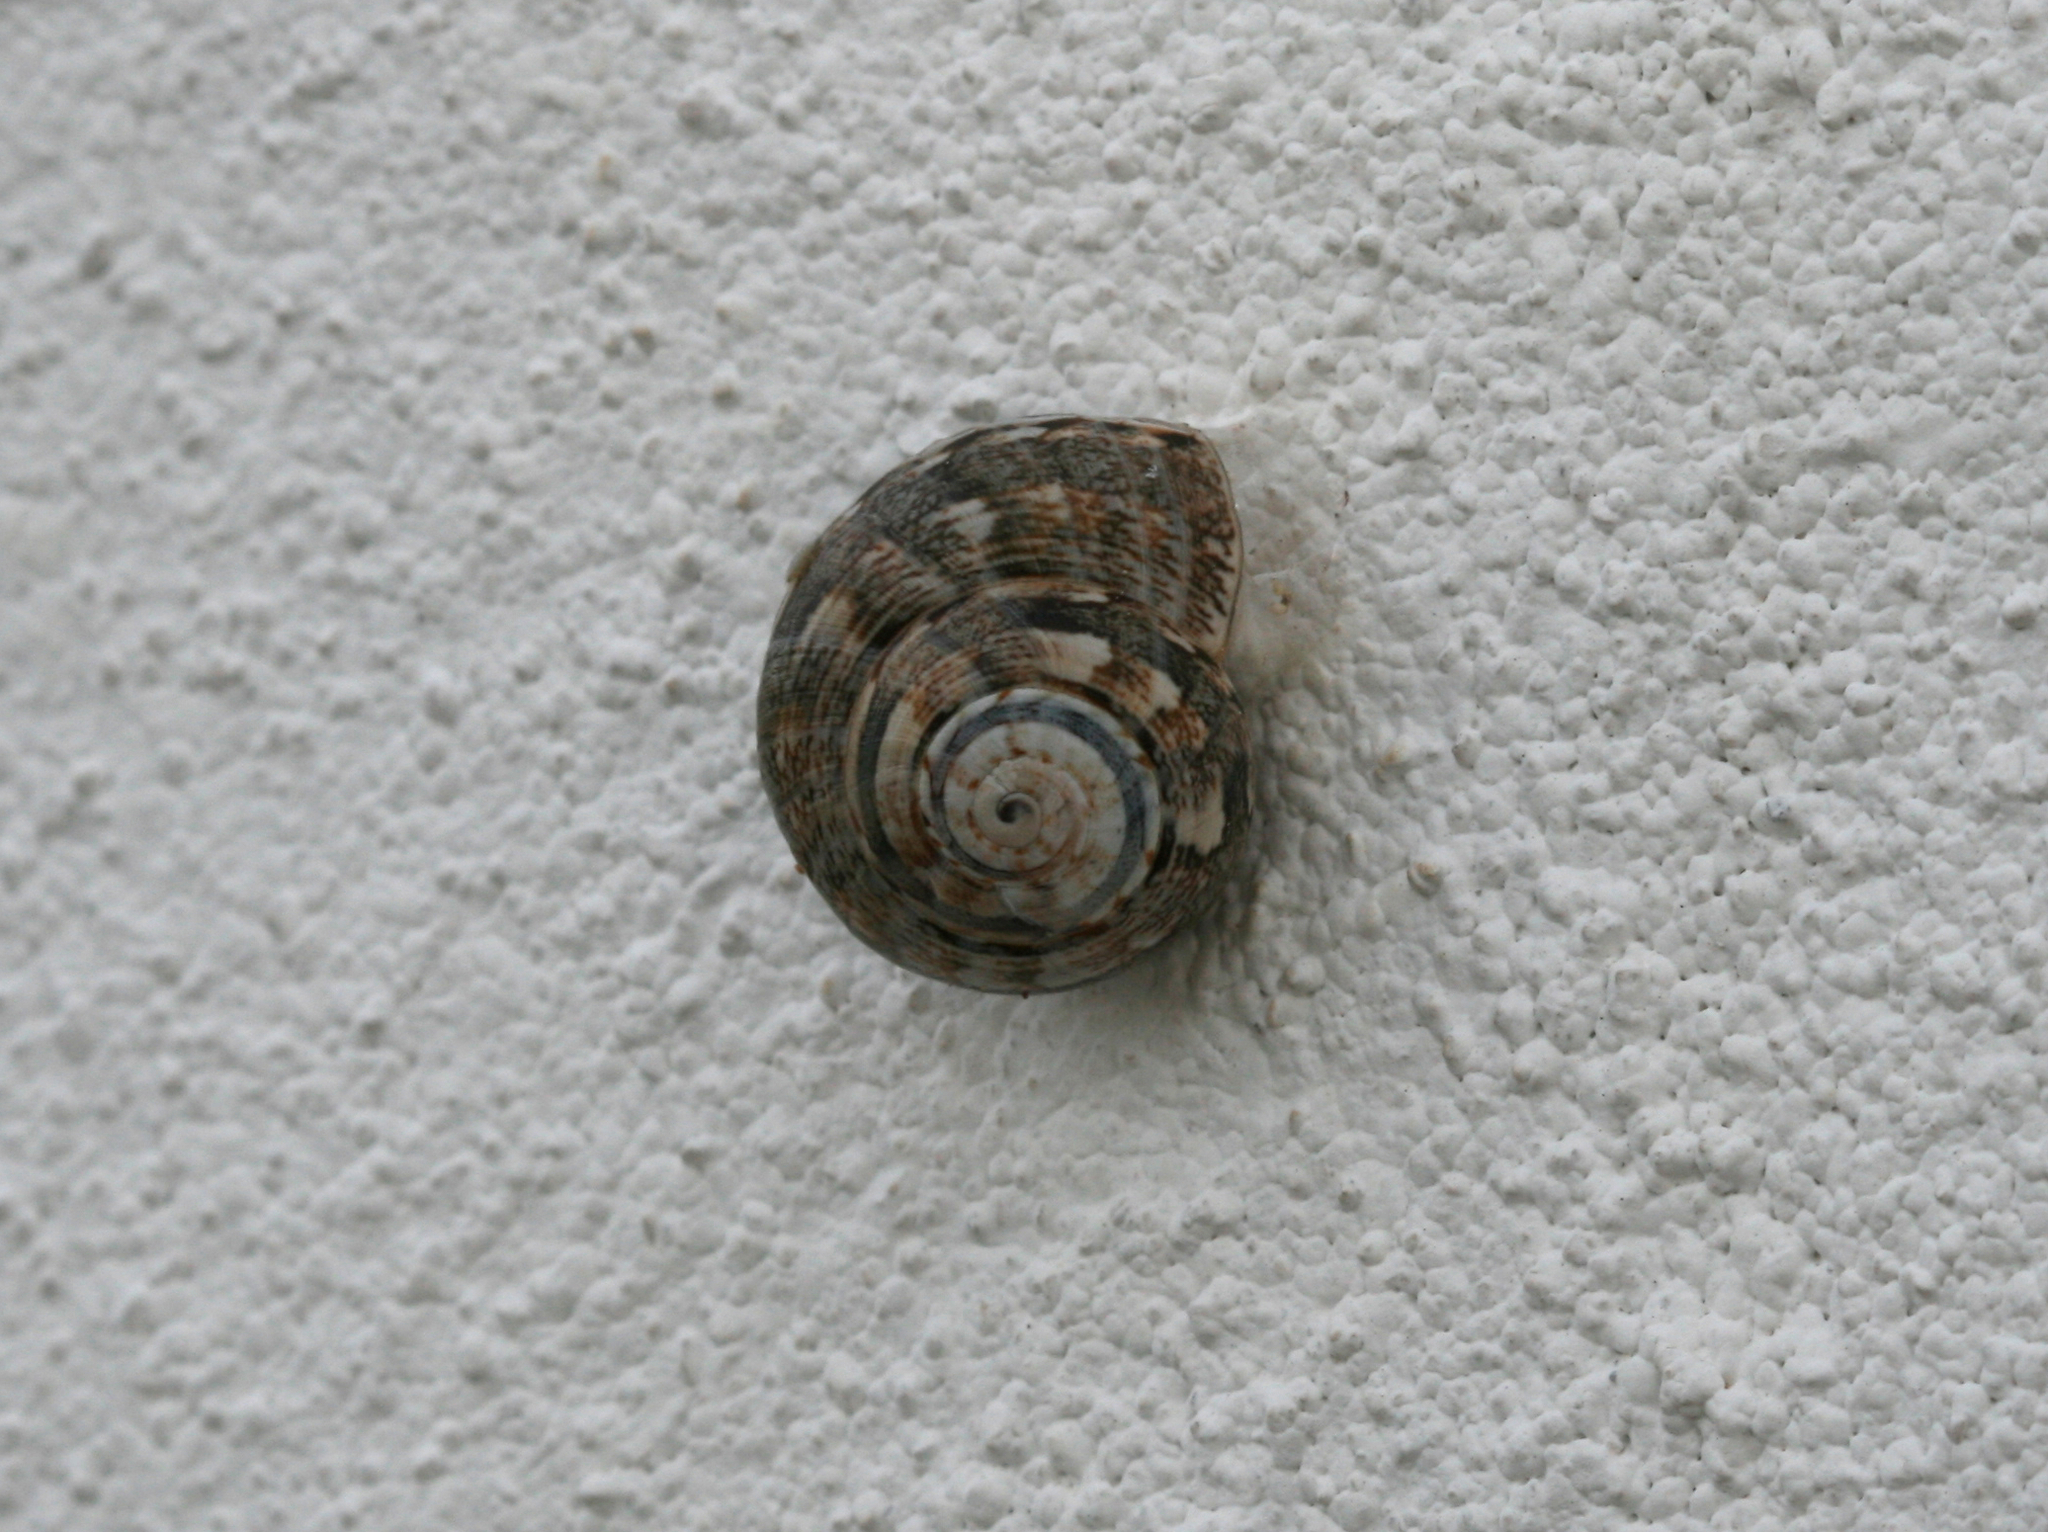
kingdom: Animalia
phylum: Mollusca
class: Gastropoda
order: Stylommatophora
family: Helicidae
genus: Theba
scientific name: Theba geminata
